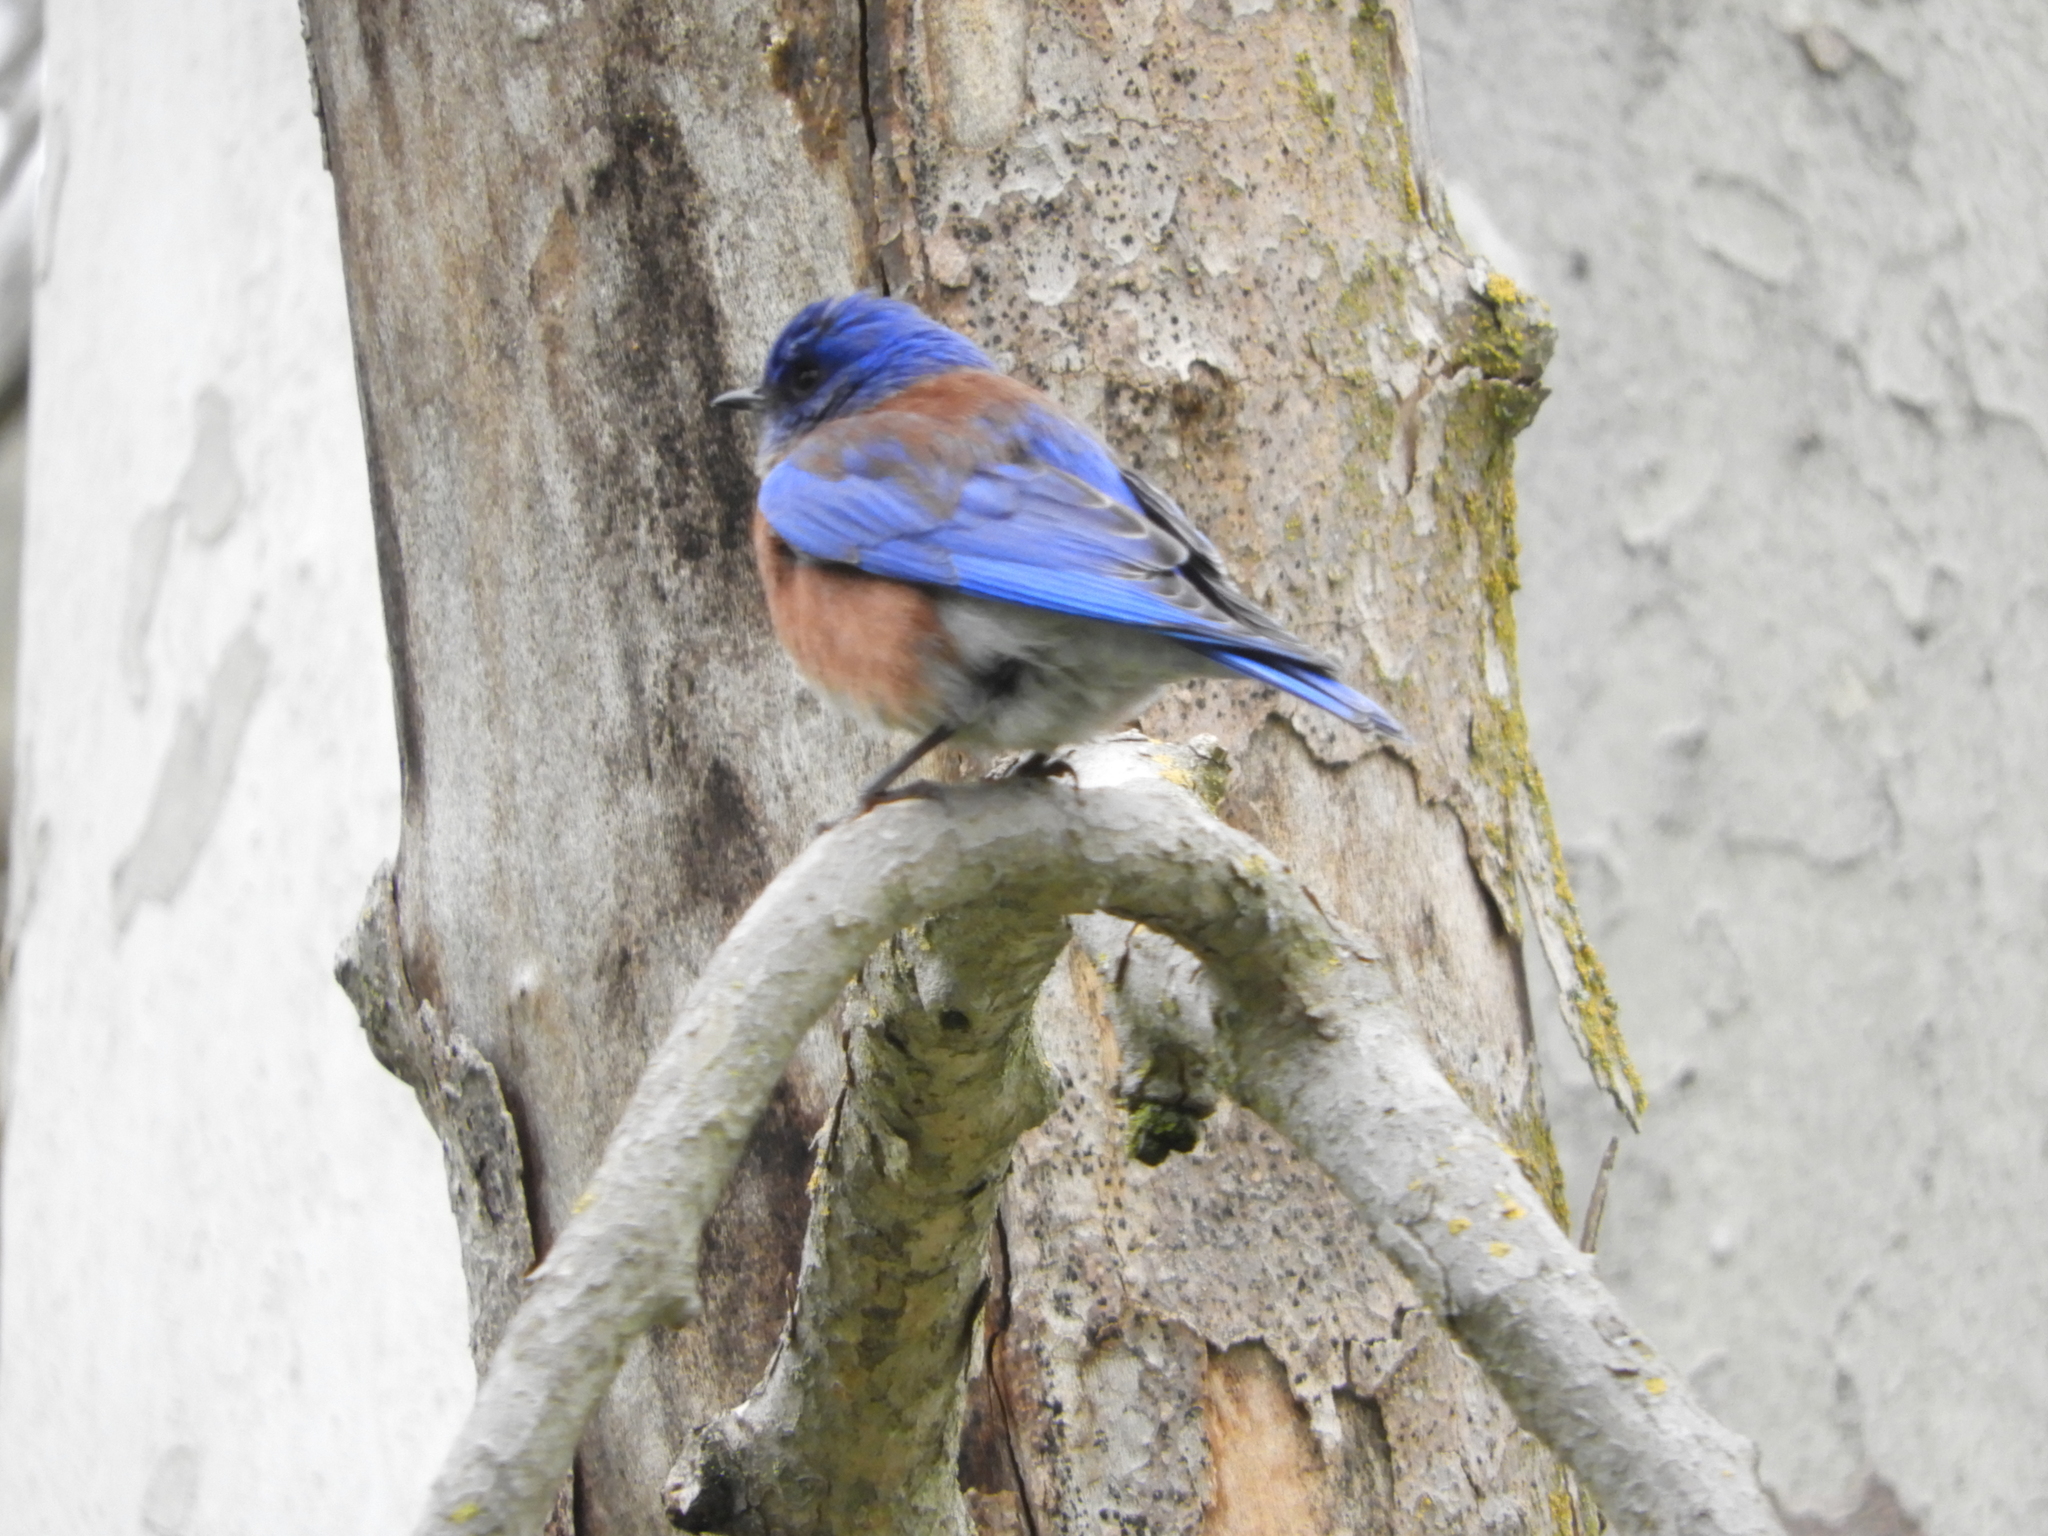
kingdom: Animalia
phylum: Chordata
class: Aves
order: Passeriformes
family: Turdidae
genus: Sialia
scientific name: Sialia mexicana
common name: Western bluebird
